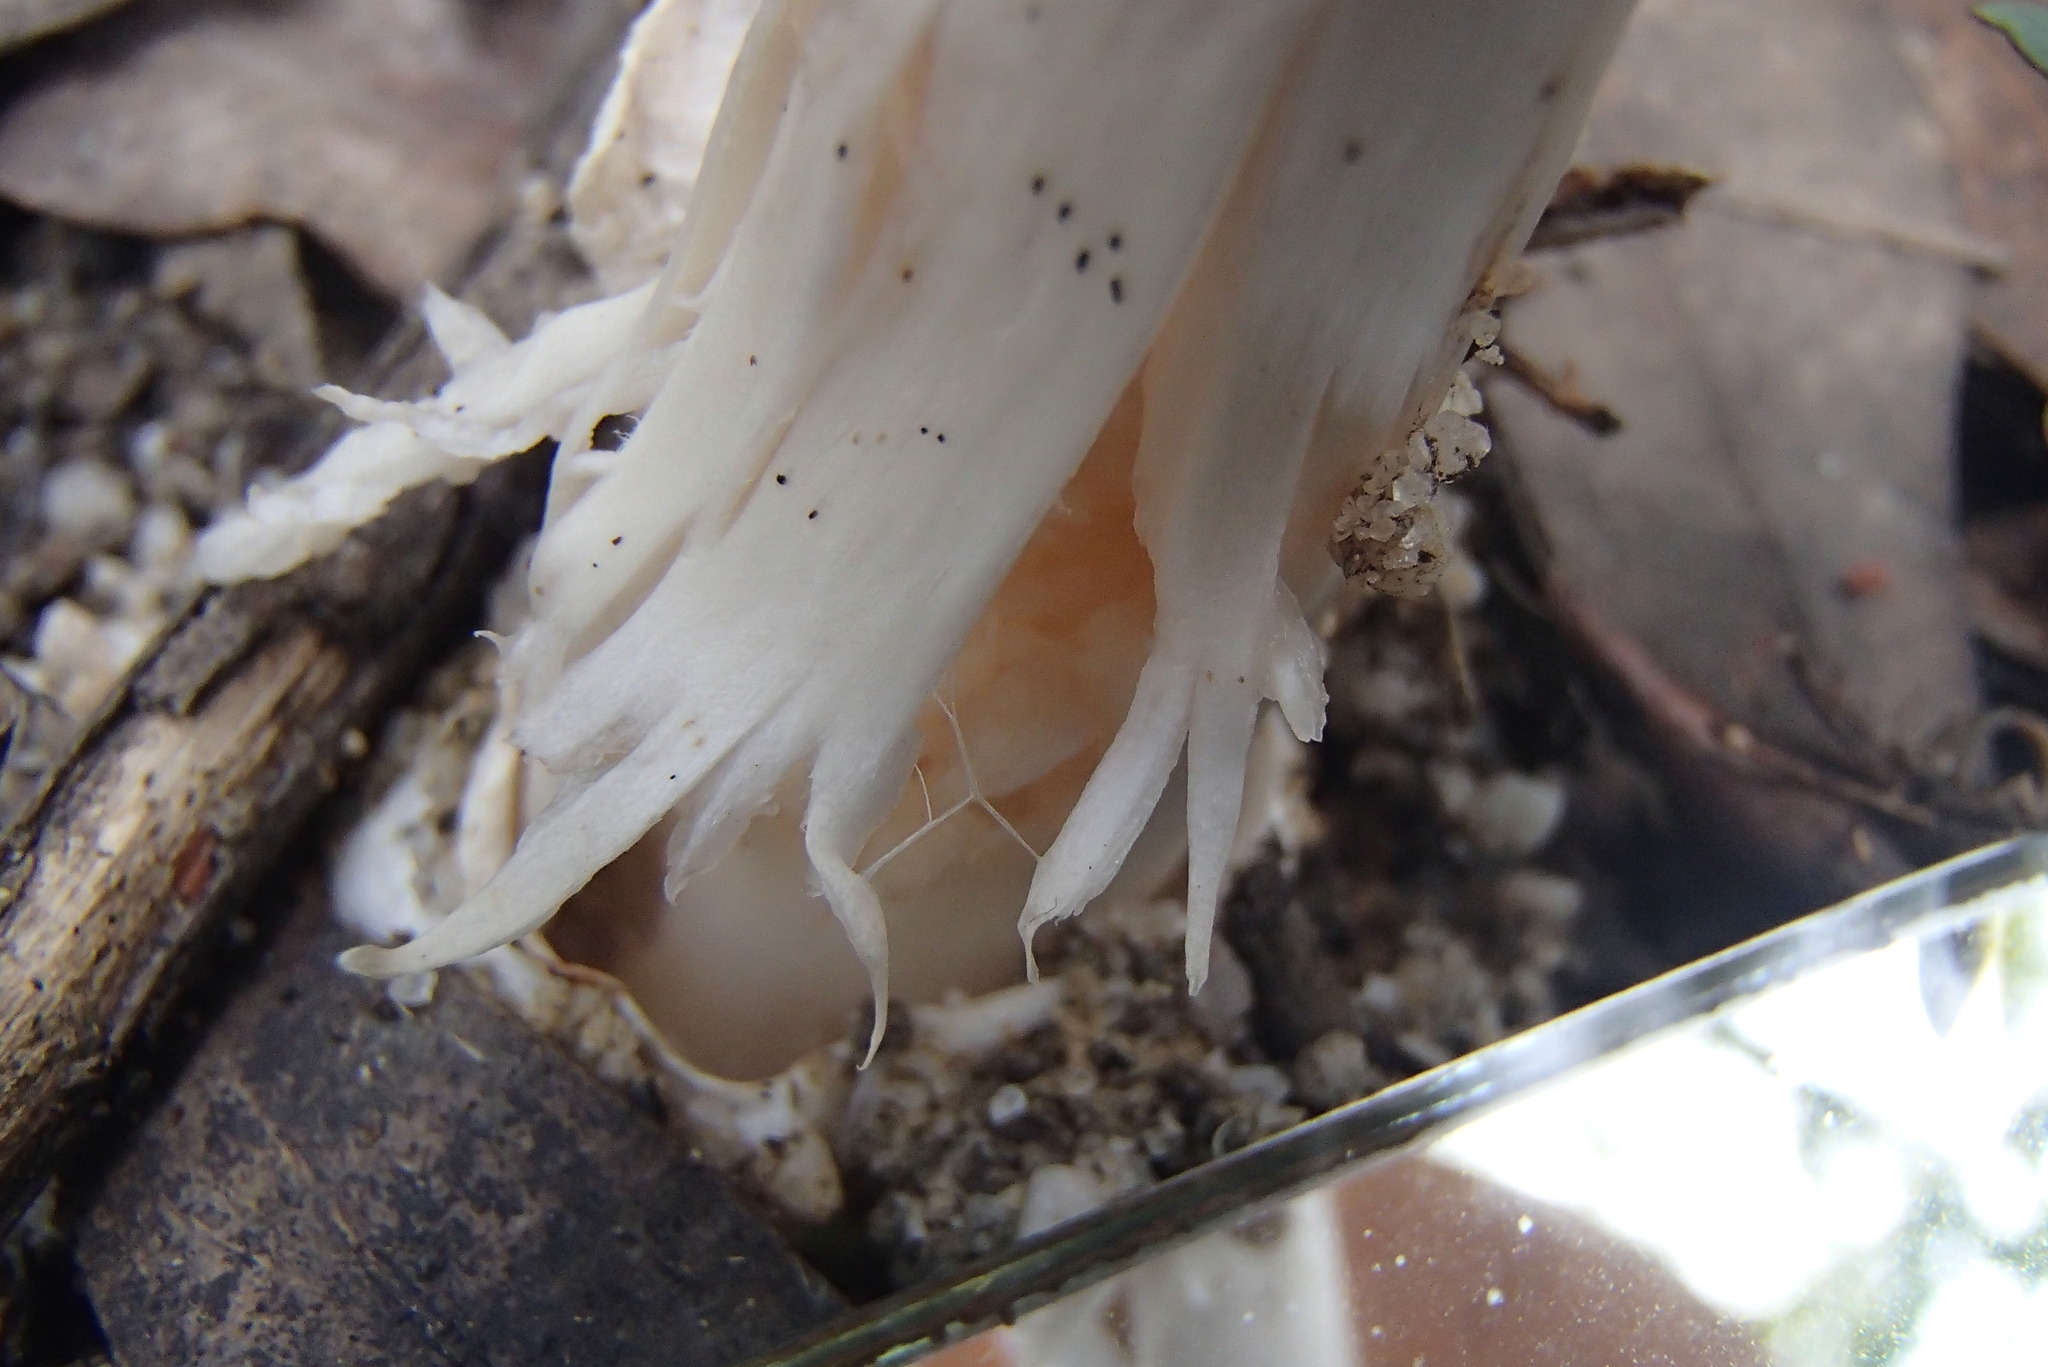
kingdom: Fungi
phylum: Basidiomycota
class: Agaricomycetes
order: Agaricales
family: Amanitaceae
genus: Amanita
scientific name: Amanita roseolamellata
